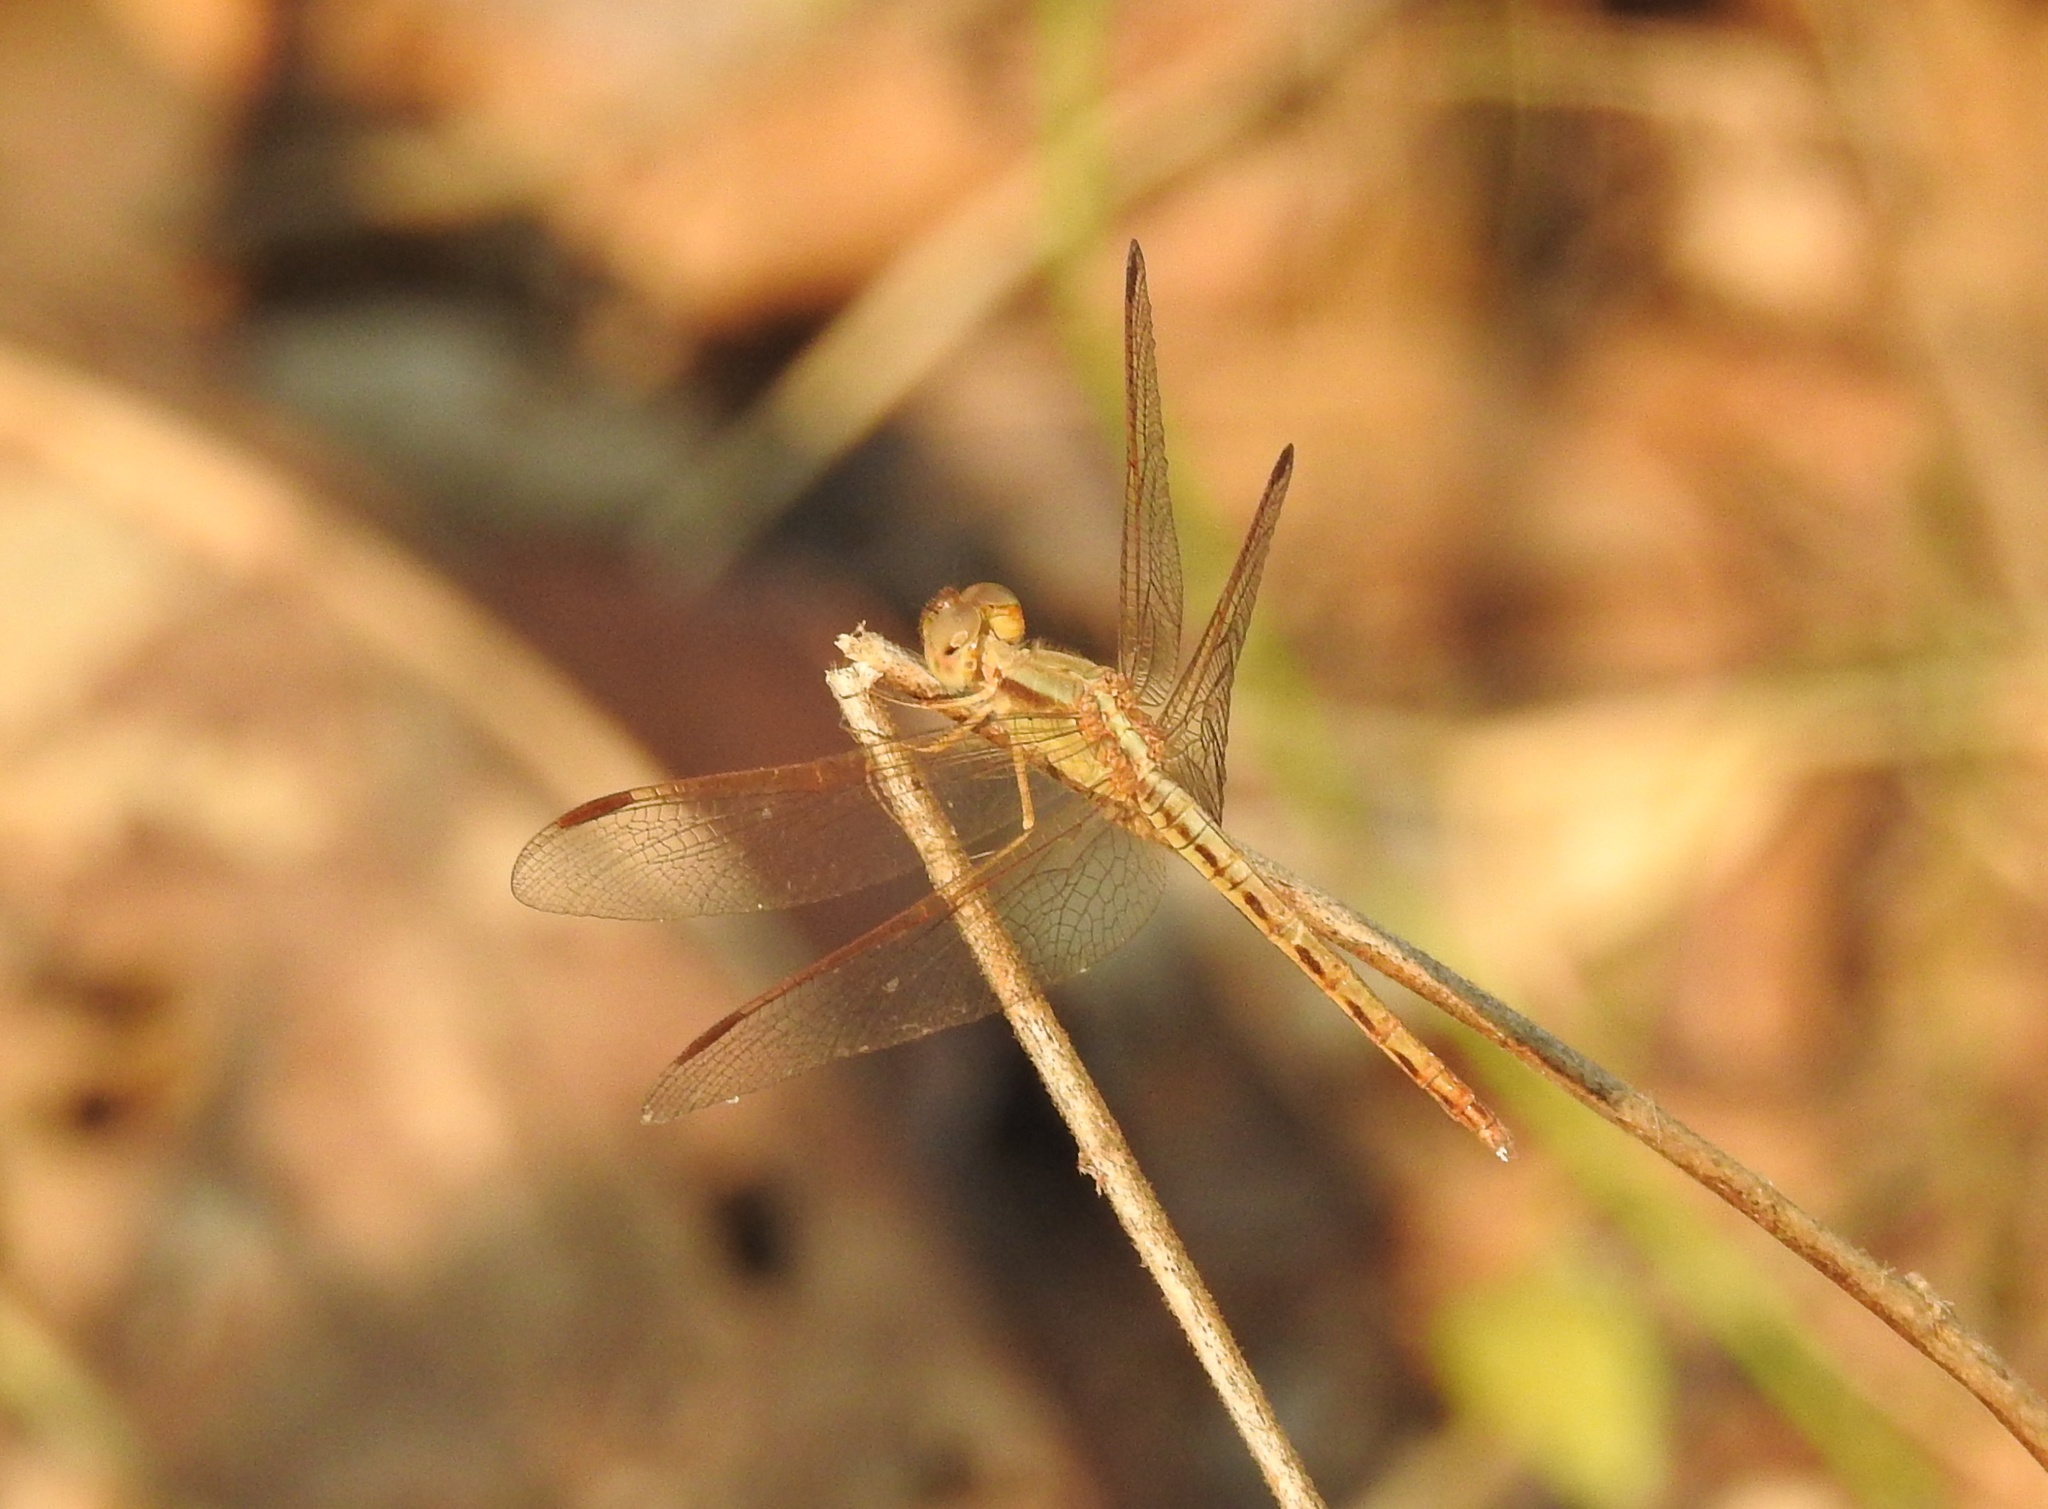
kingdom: Animalia
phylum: Arthropoda
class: Insecta
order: Odonata
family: Libellulidae
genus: Neurothemis
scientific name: Neurothemis intermedia
